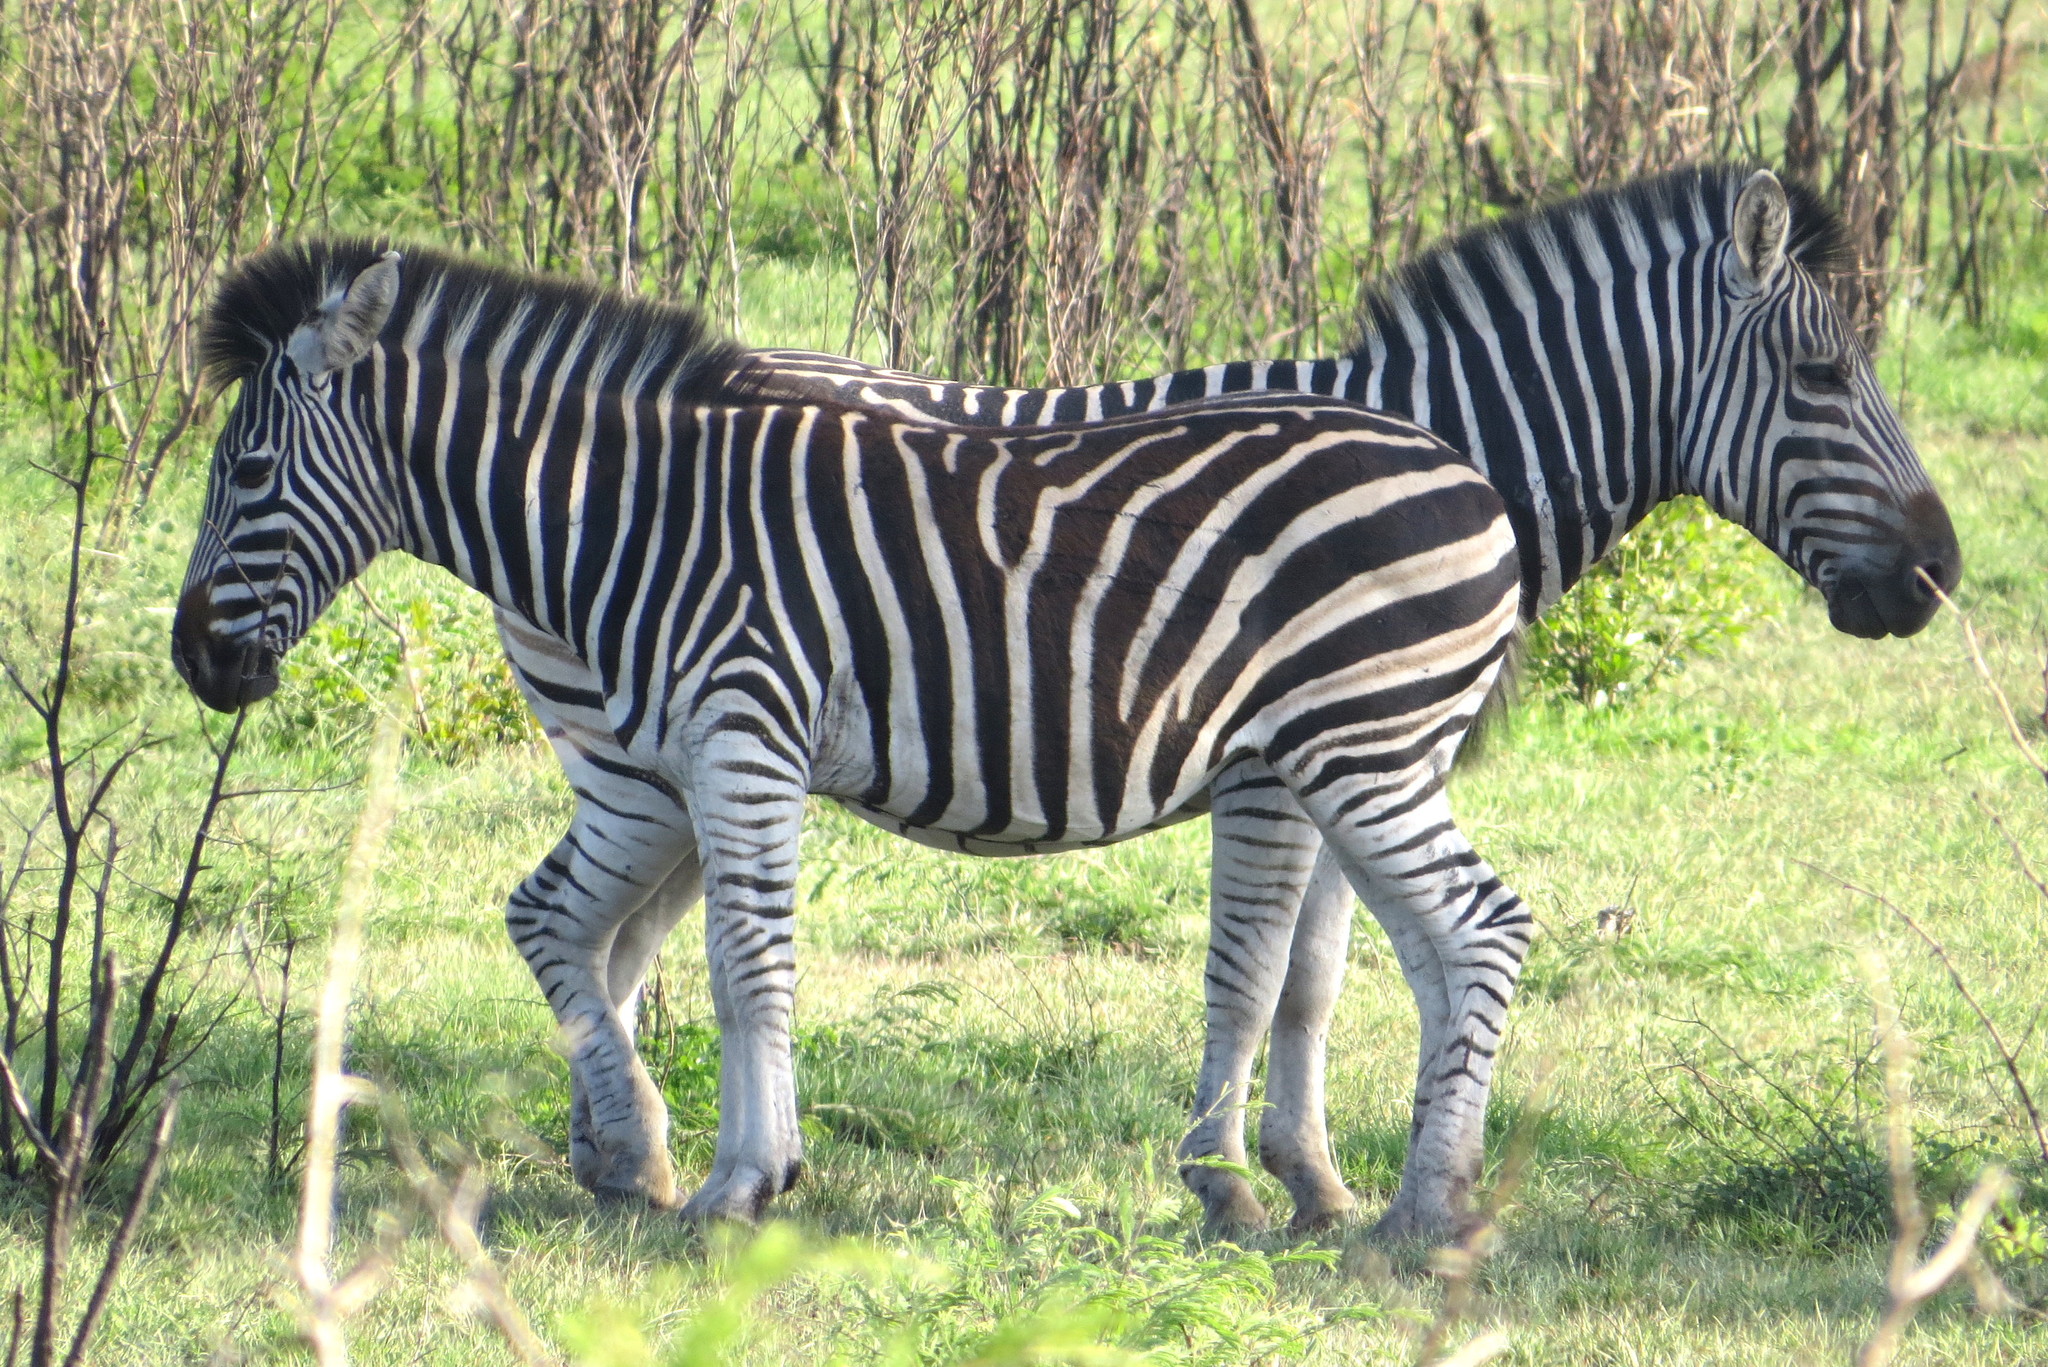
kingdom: Animalia
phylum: Chordata
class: Mammalia
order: Perissodactyla
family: Equidae
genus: Equus
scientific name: Equus quagga
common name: Plains zebra
